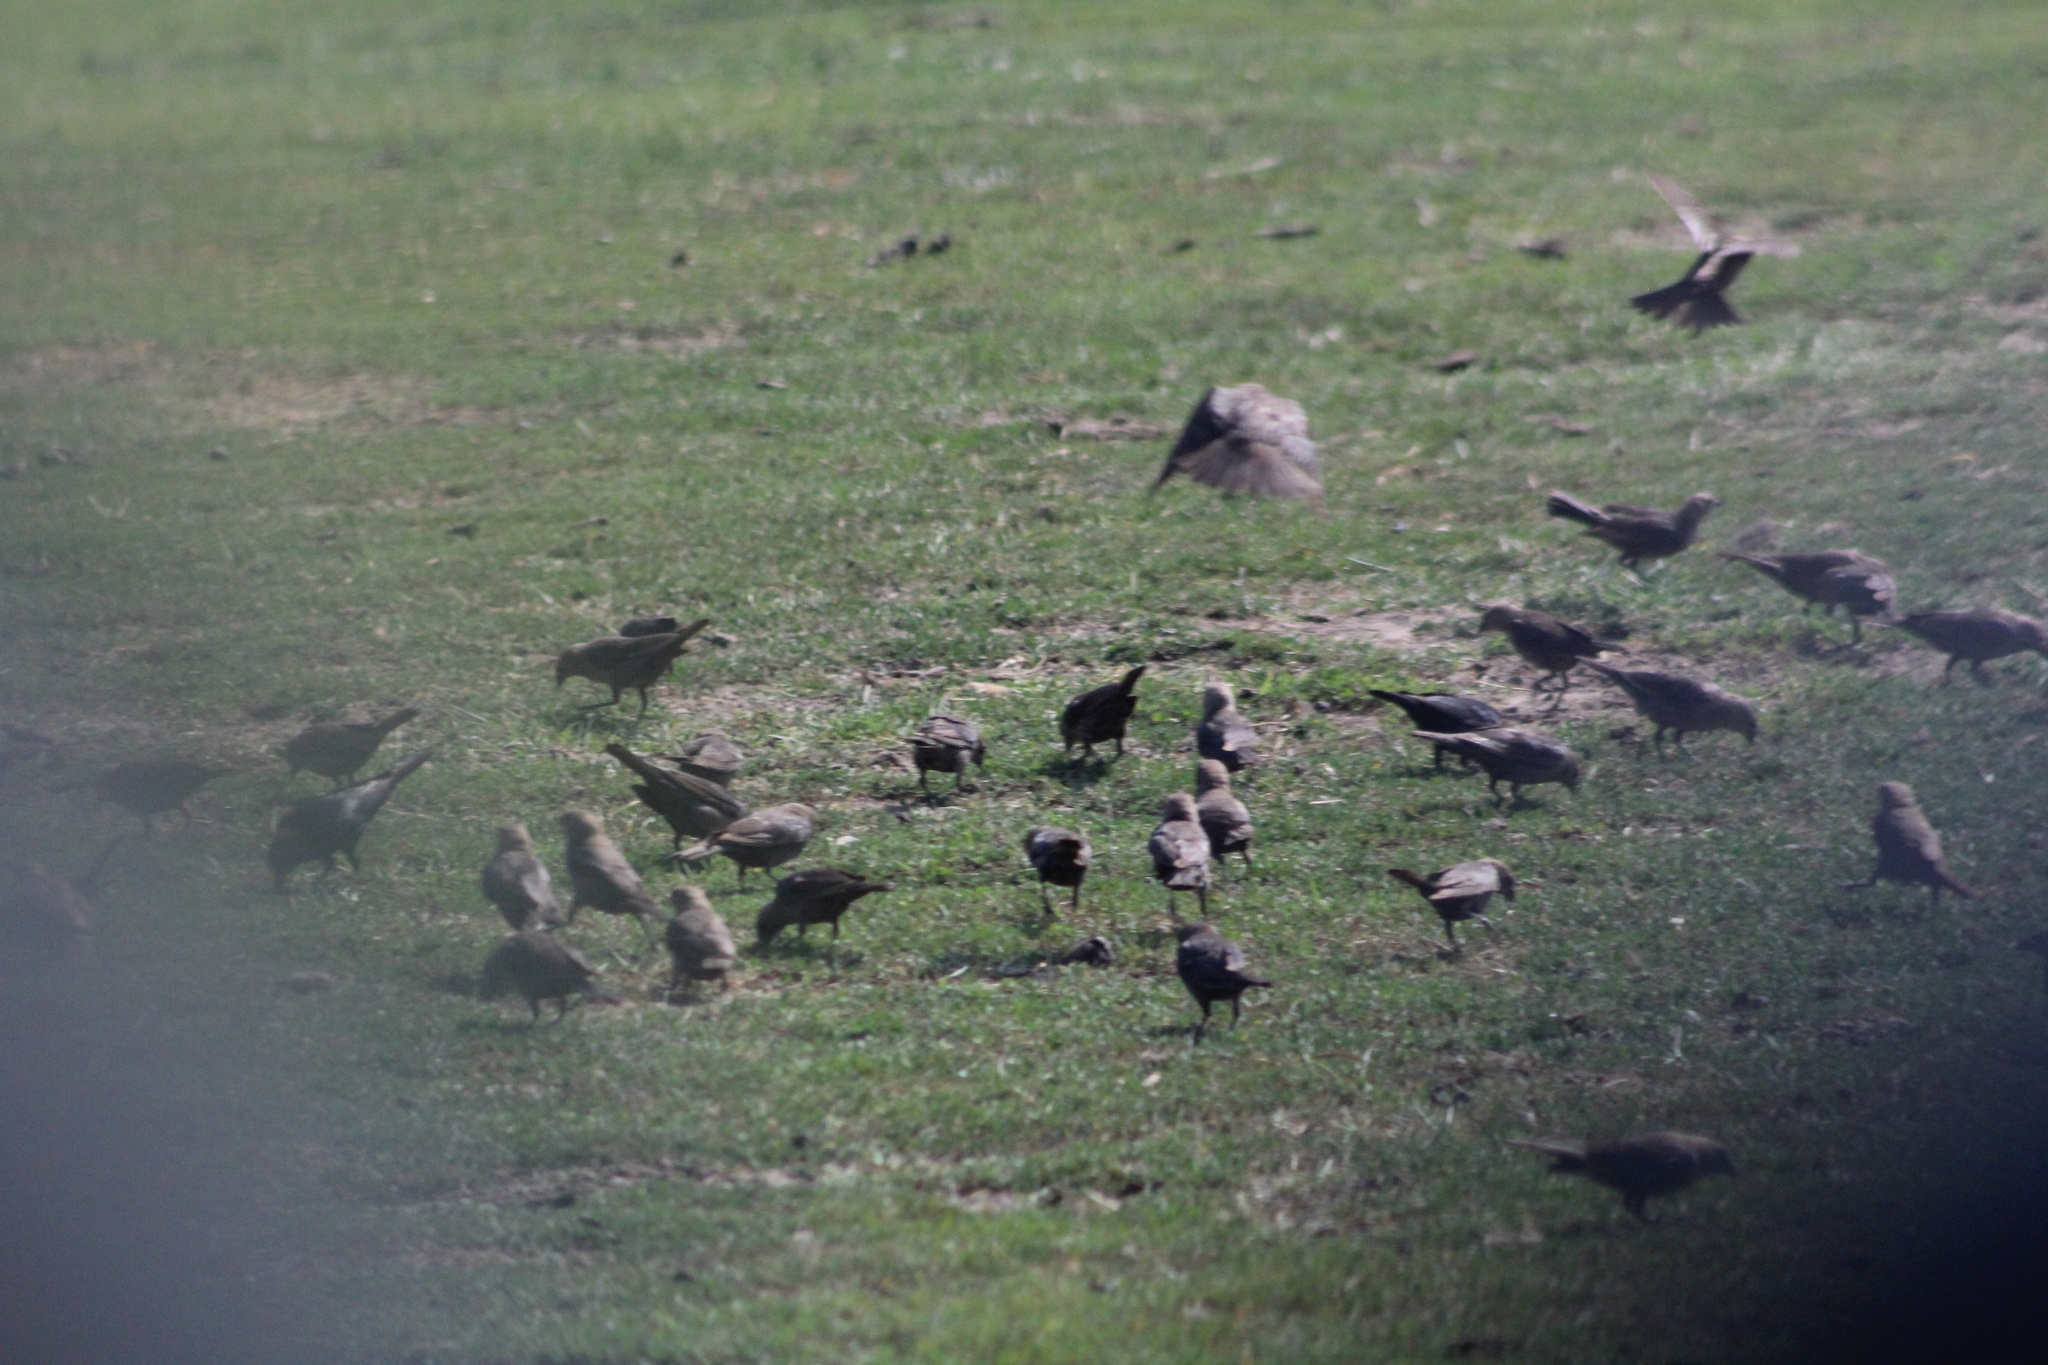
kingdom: Animalia
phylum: Chordata
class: Aves
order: Passeriformes
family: Icteridae
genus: Molothrus
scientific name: Molothrus ater
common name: Brown-headed cowbird
